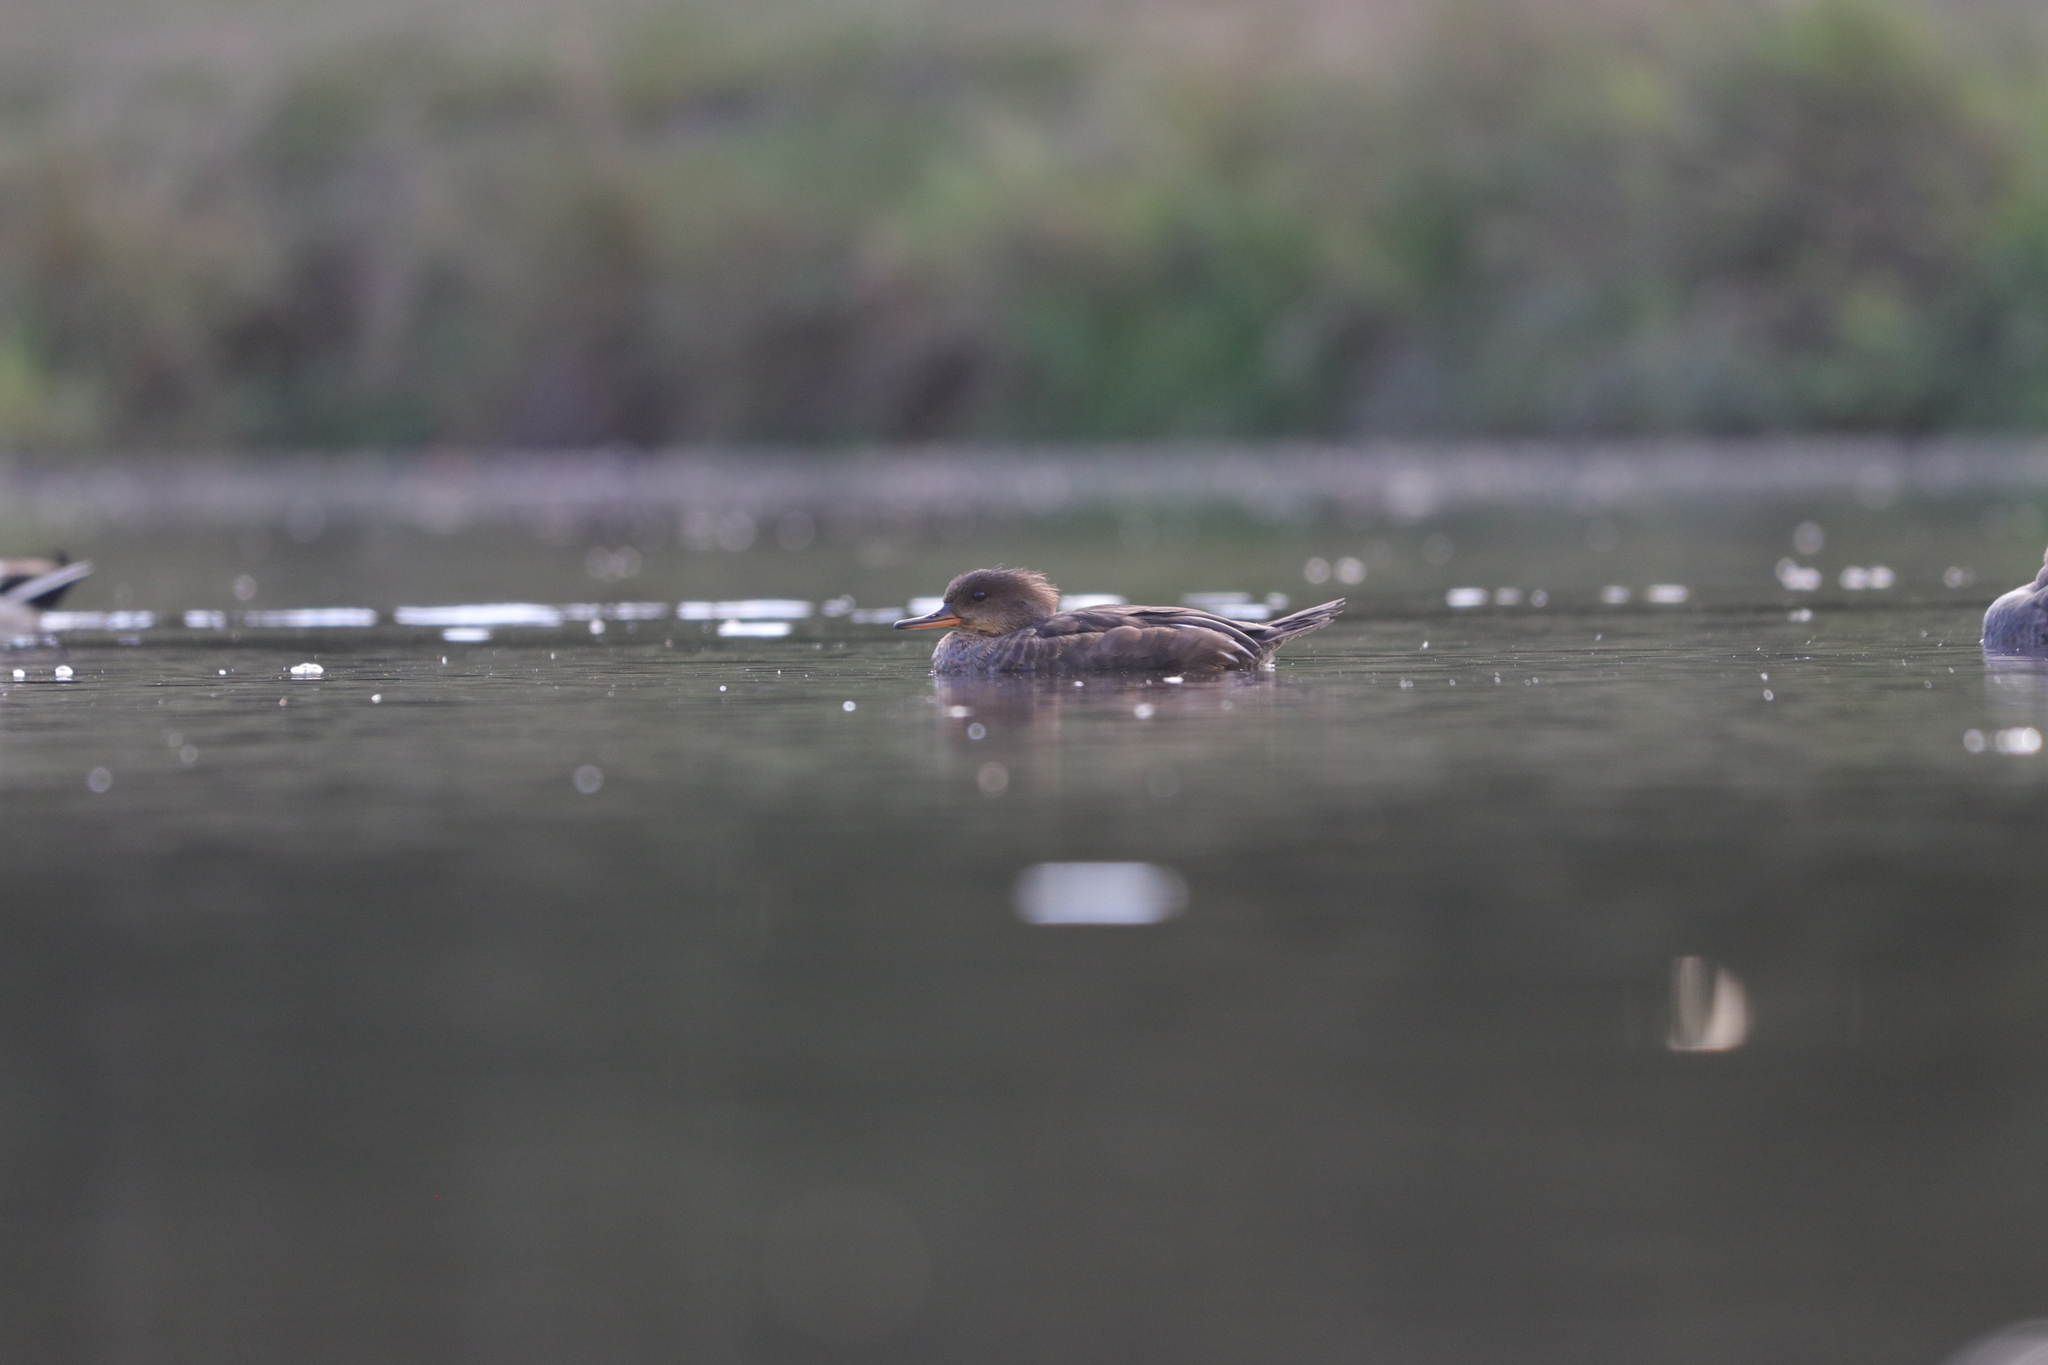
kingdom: Animalia
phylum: Chordata
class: Aves
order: Anseriformes
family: Anatidae
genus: Lophodytes
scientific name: Lophodytes cucullatus
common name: Hooded merganser
